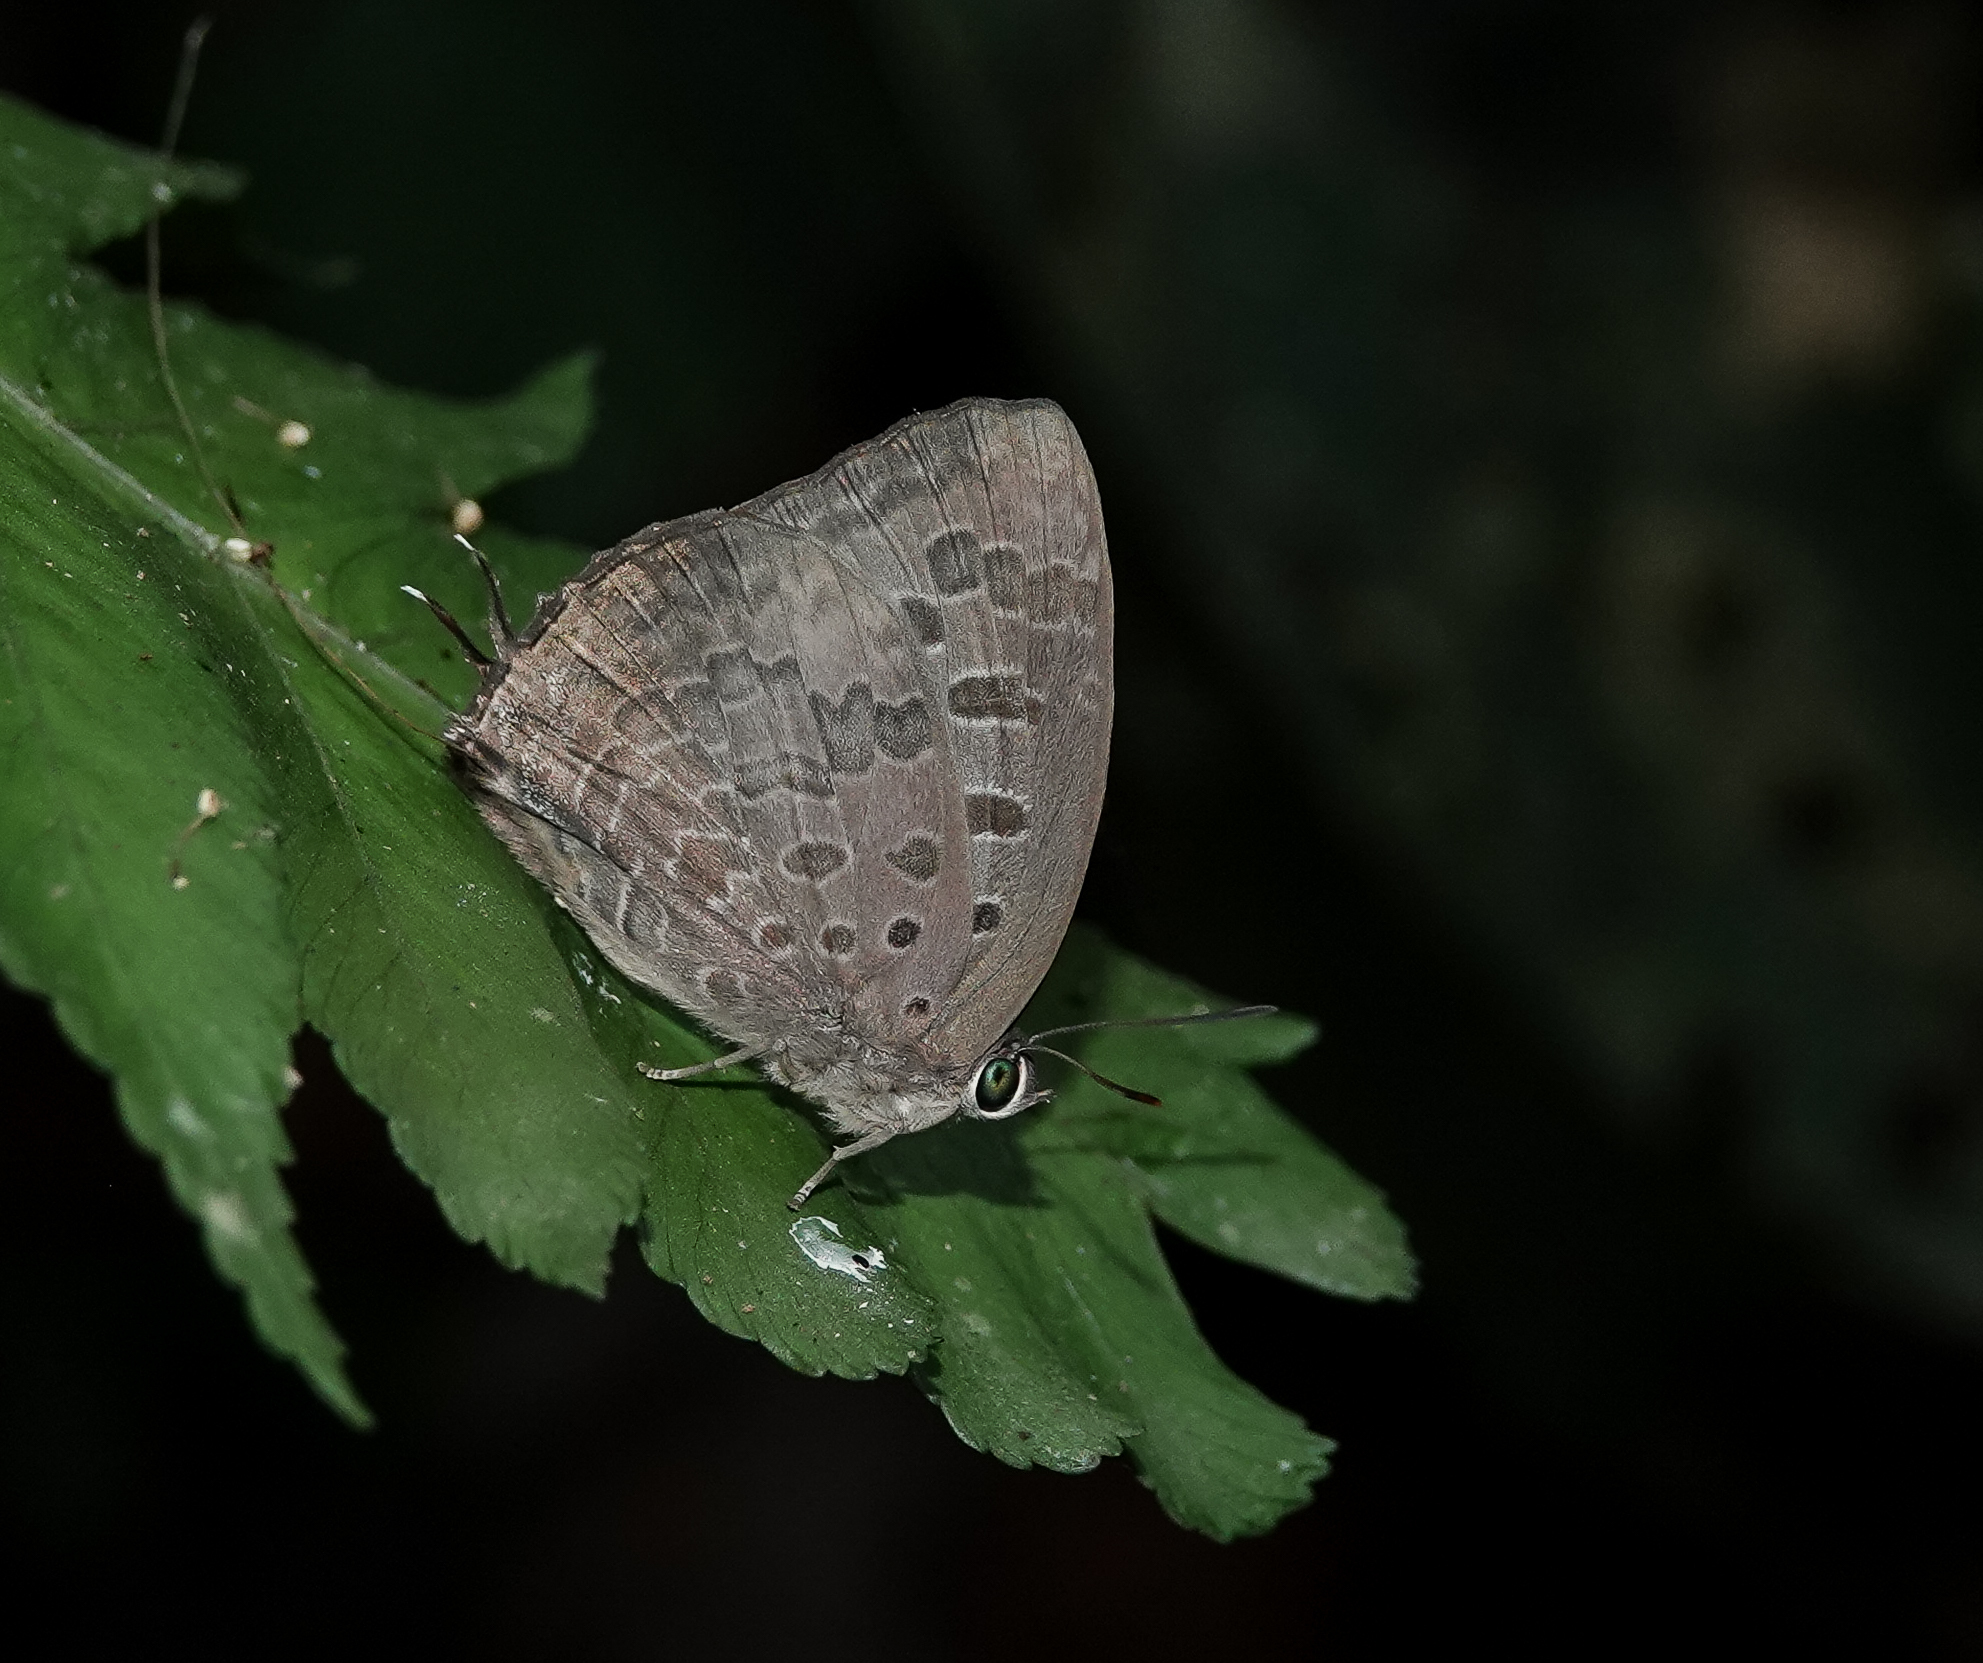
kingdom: Animalia
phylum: Arthropoda
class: Insecta
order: Lepidoptera
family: Lycaenidae
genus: Arhopala
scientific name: Arhopala eumolphus
